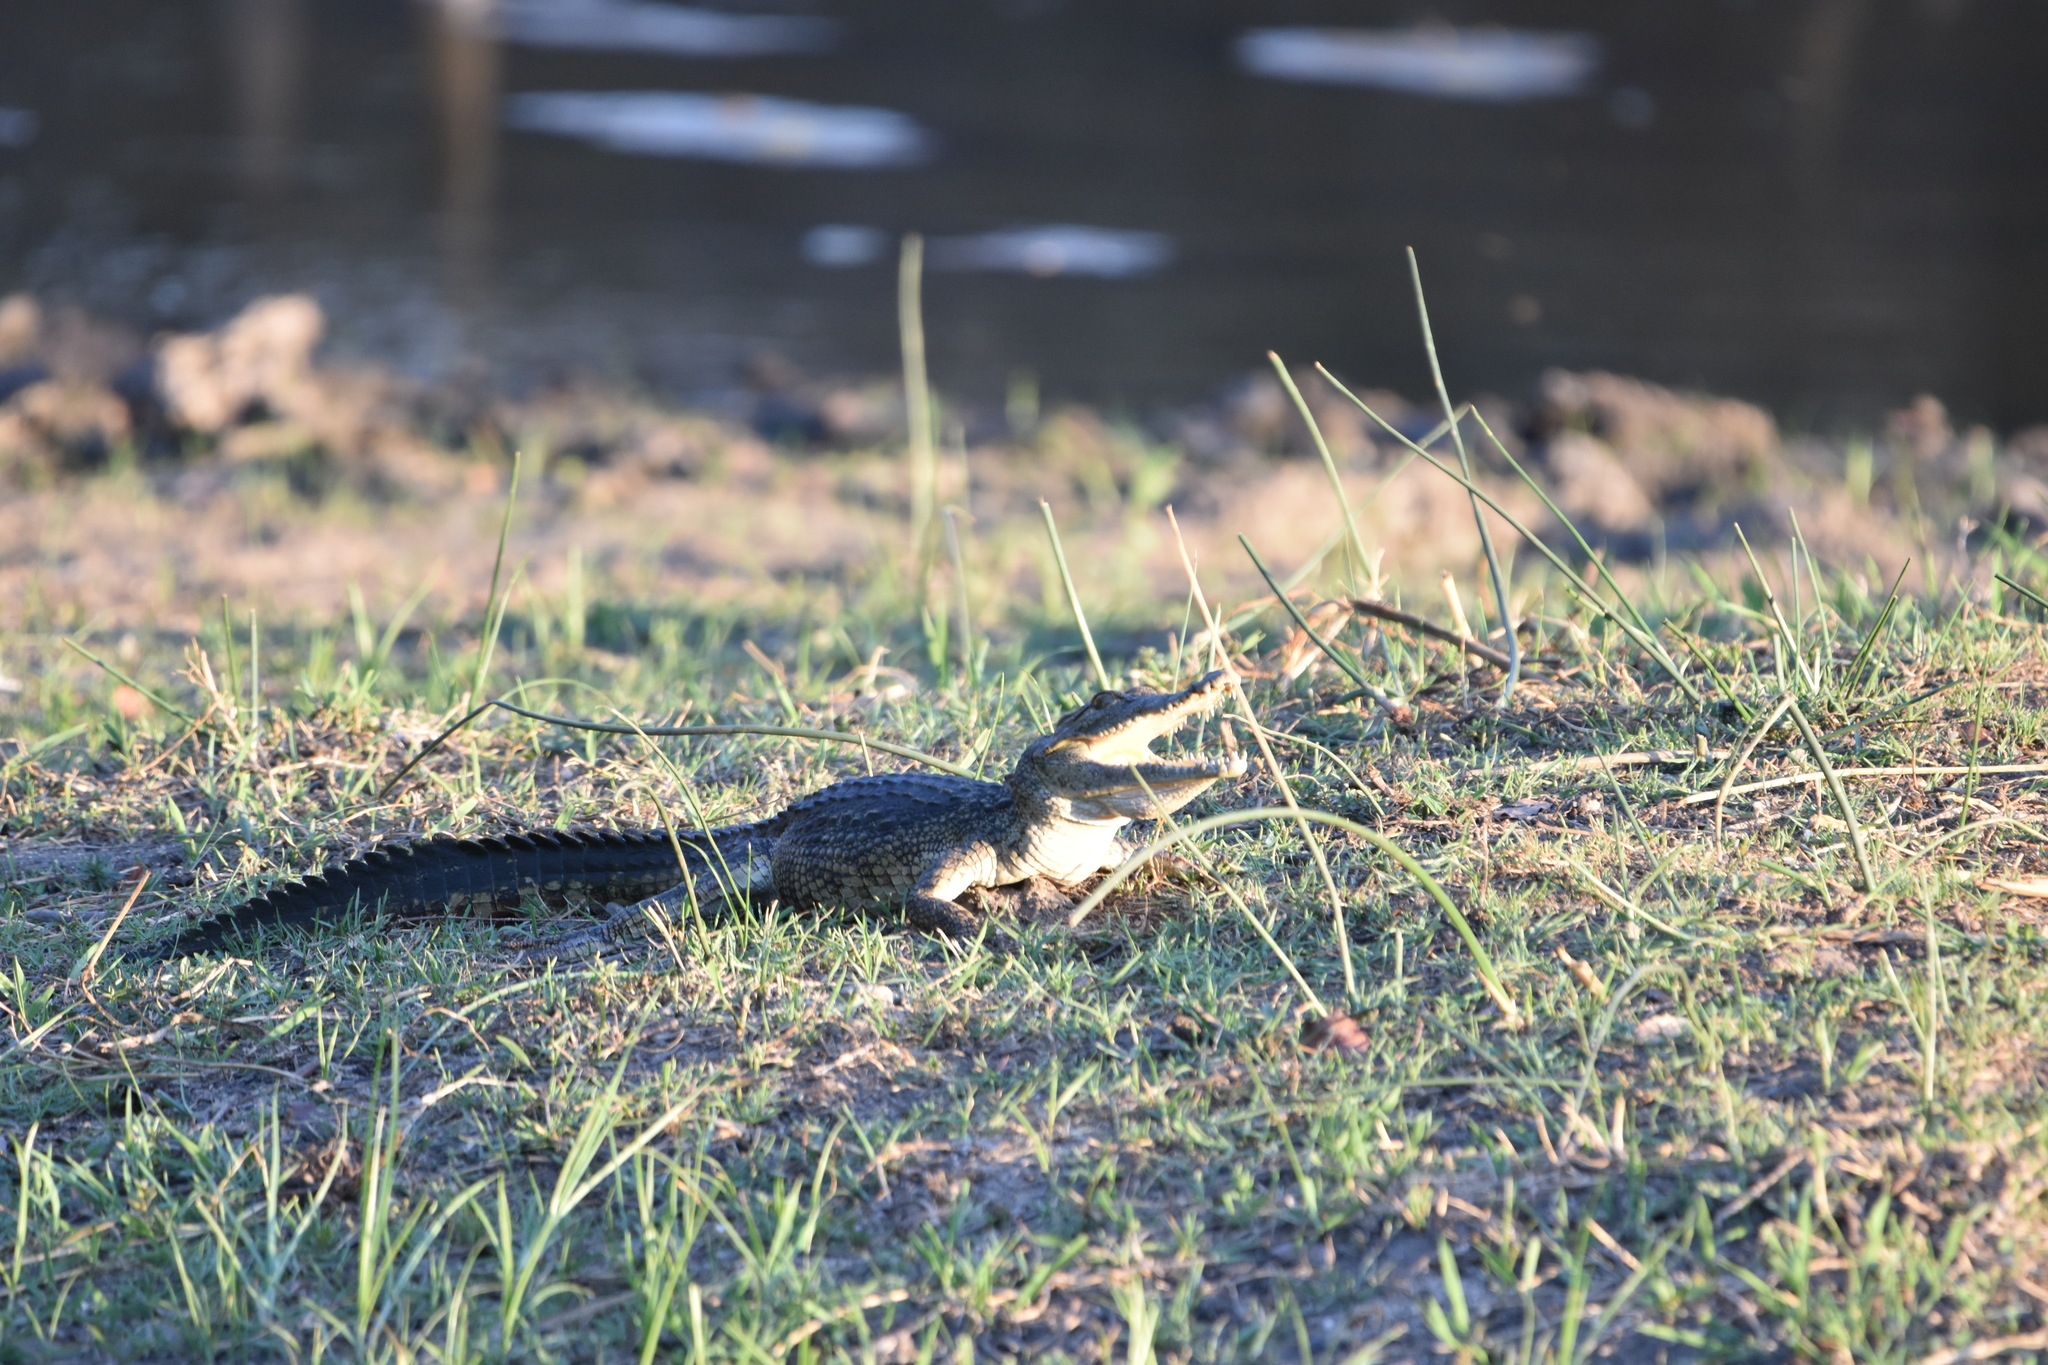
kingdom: Animalia
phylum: Chordata
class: Crocodylia
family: Crocodylidae
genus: Crocodylus
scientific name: Crocodylus niloticus
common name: Nile crocodile
